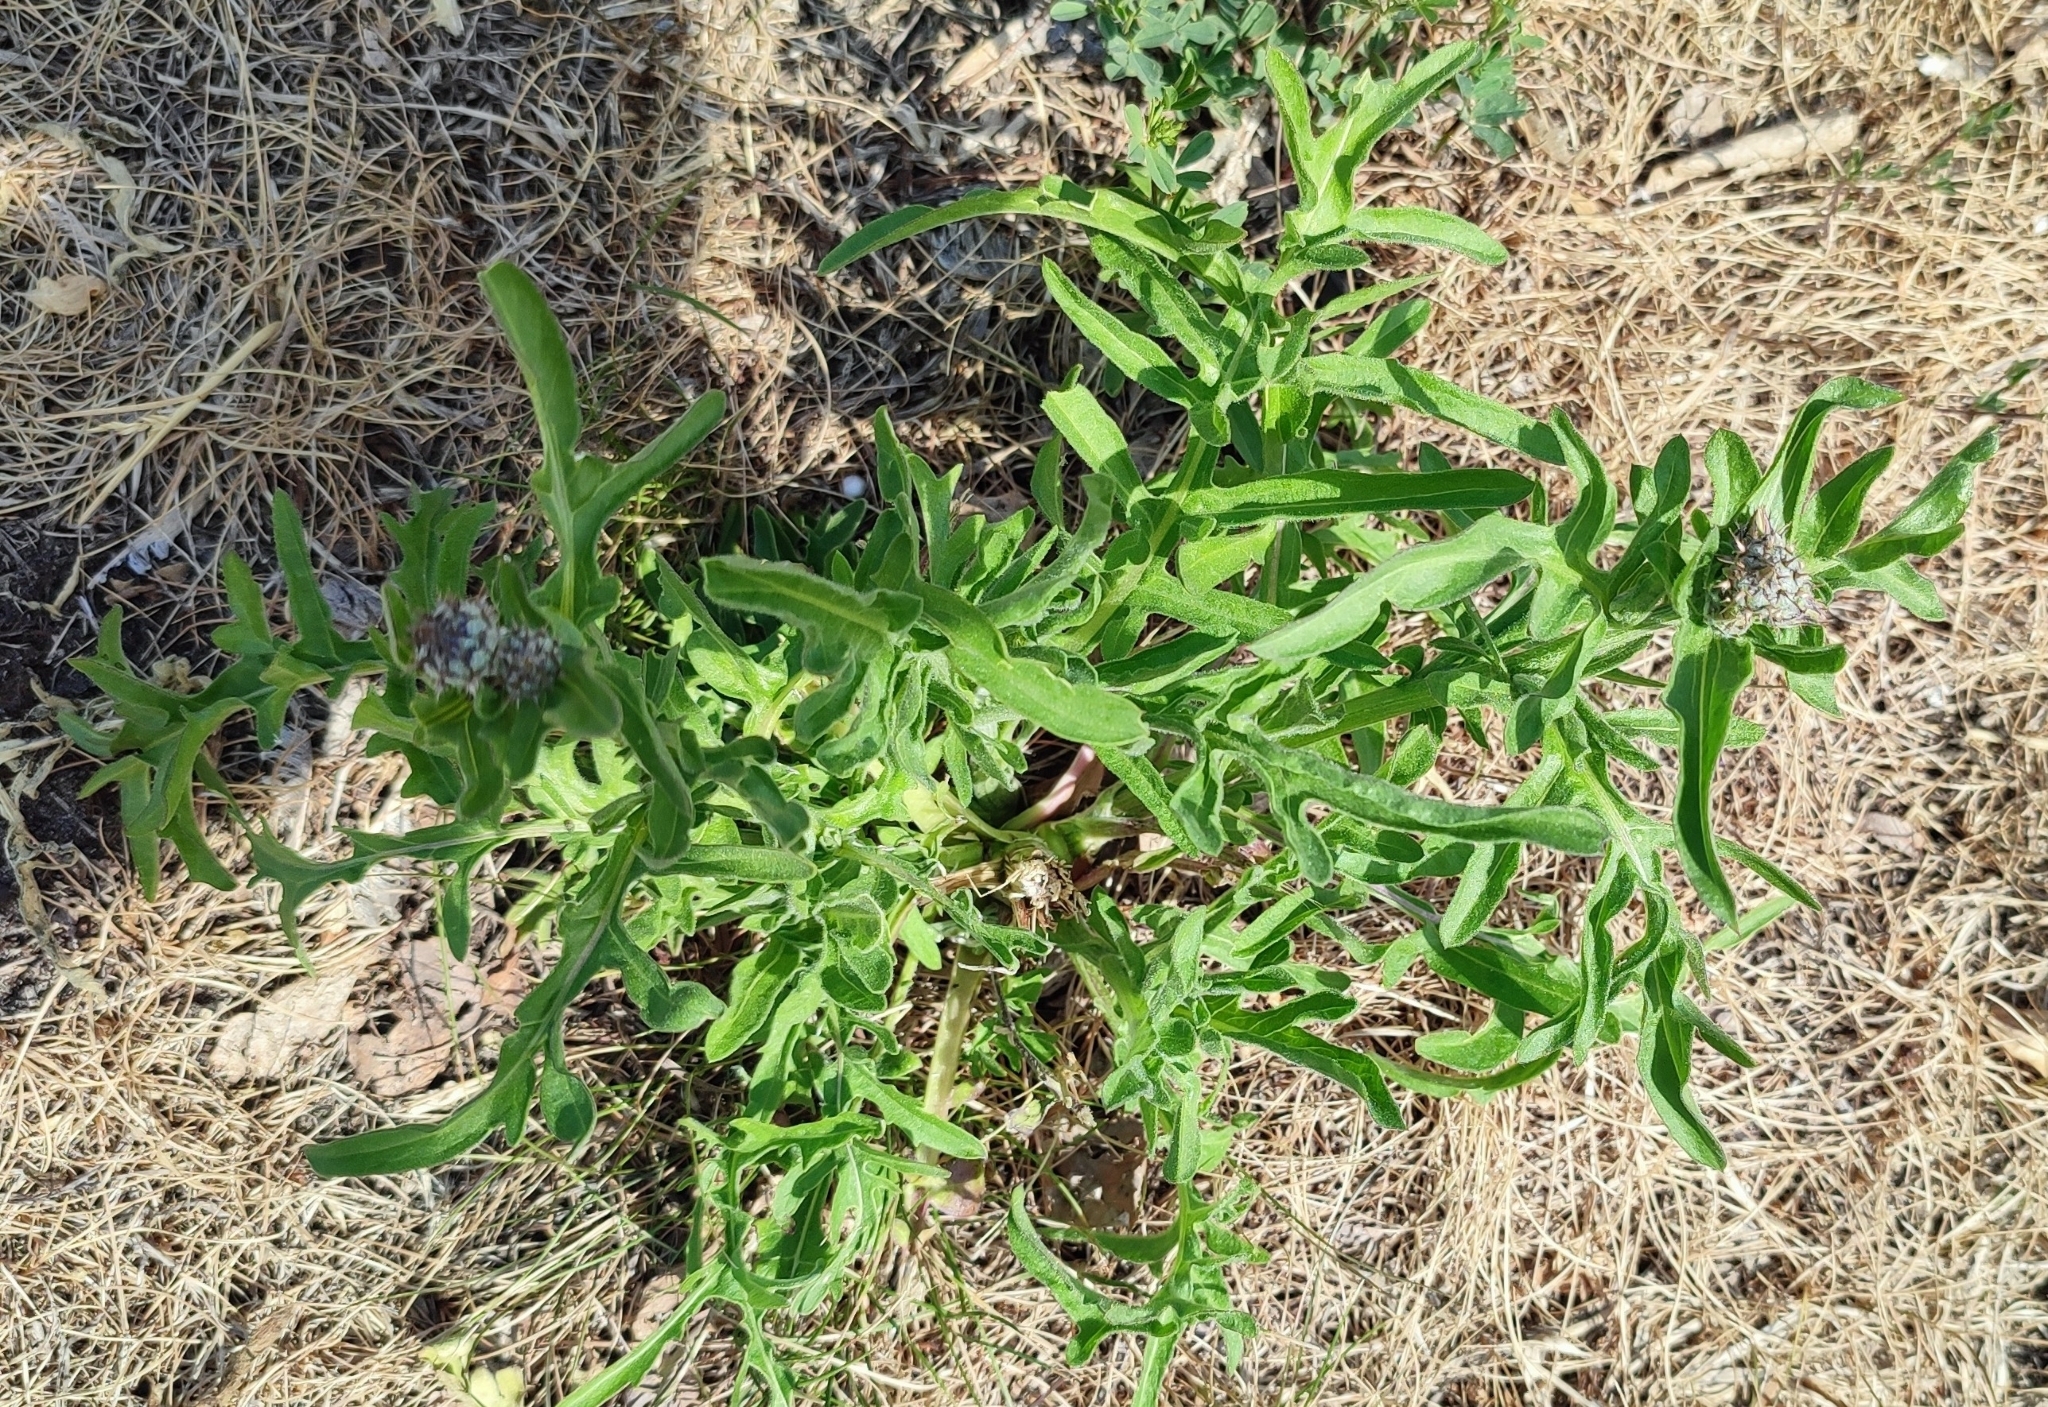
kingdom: Plantae
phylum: Tracheophyta
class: Magnoliopsida
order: Asterales
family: Asteraceae
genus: Centaurea
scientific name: Centaurea scabiosa
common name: Greater knapweed
